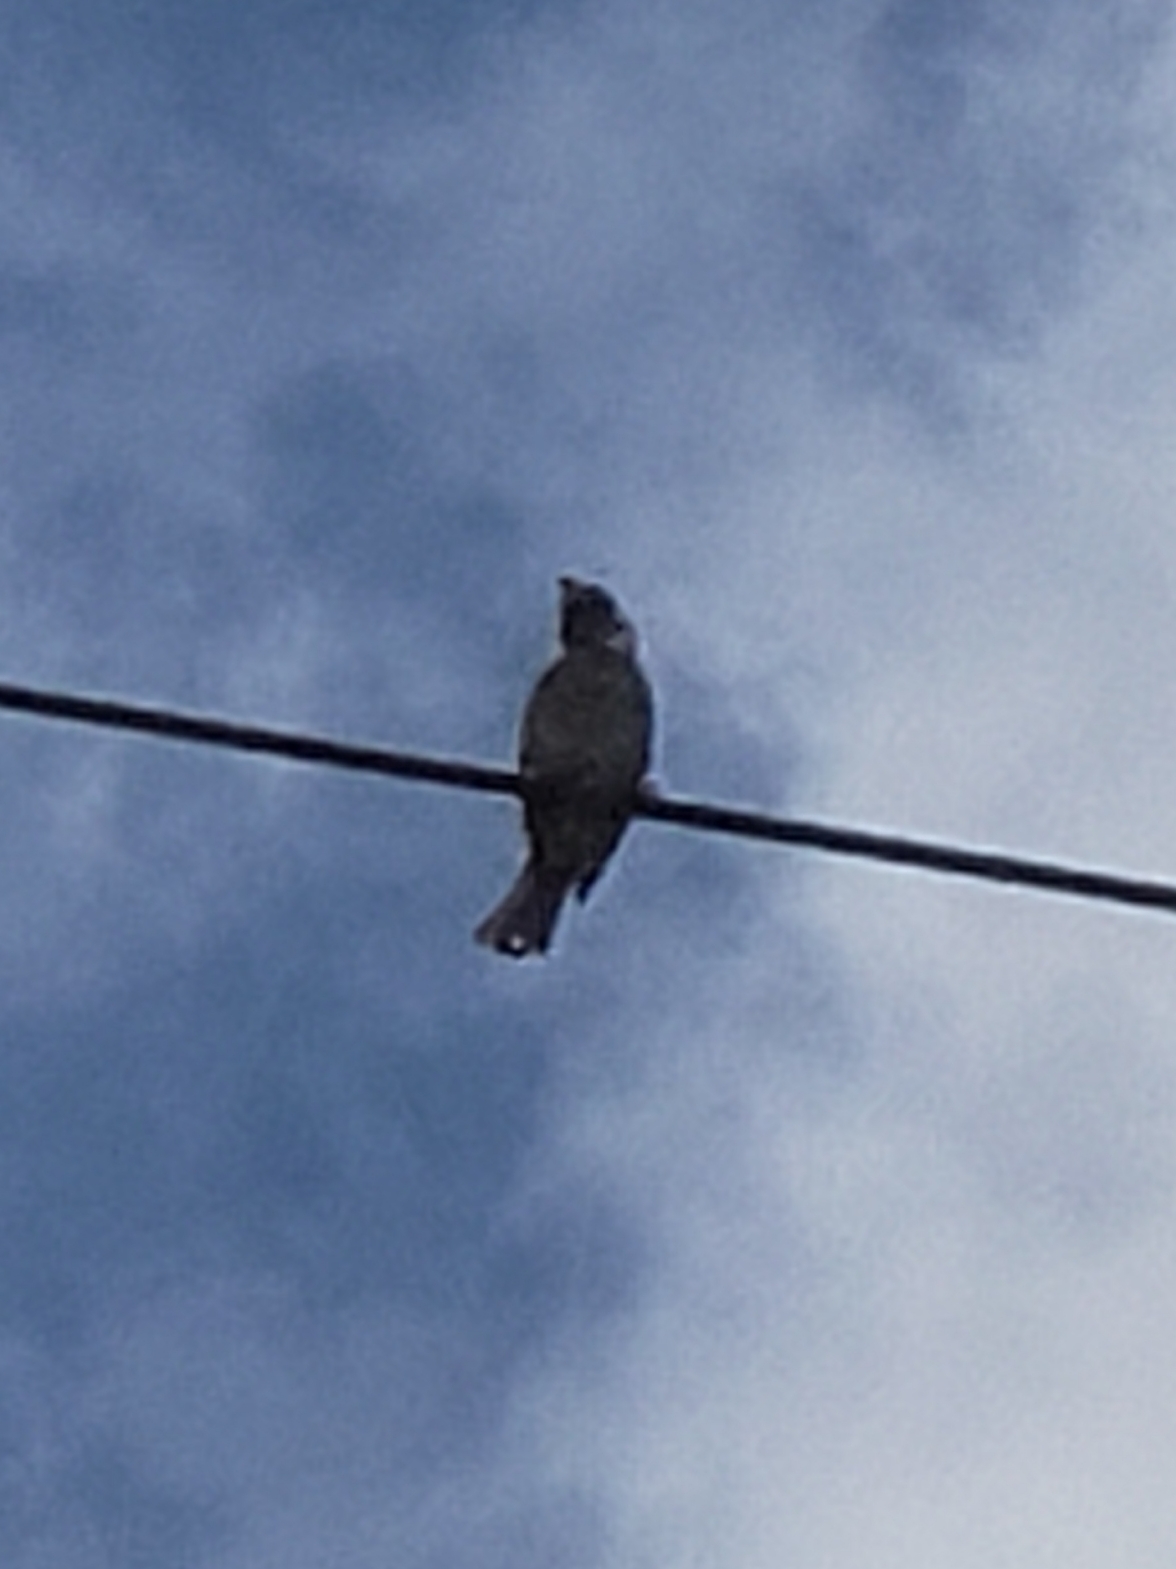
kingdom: Animalia
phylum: Chordata
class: Aves
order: Passeriformes
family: Passeridae
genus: Passer
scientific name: Passer domesticus
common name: House sparrow
